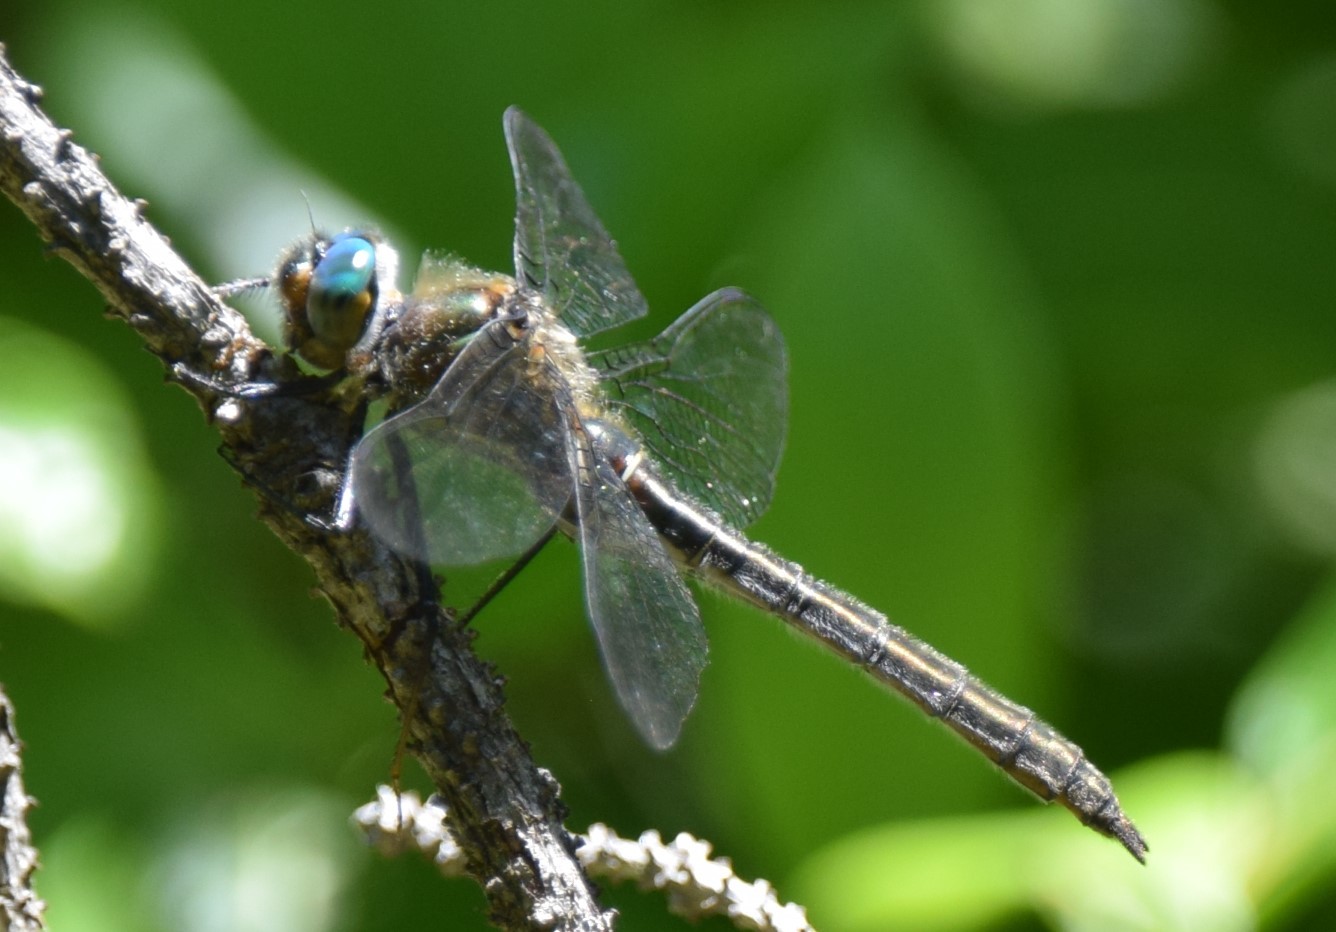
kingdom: Animalia
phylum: Arthropoda
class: Insecta
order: Odonata
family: Corduliidae
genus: Cordulia
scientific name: Cordulia shurtleffii
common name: American emerald
